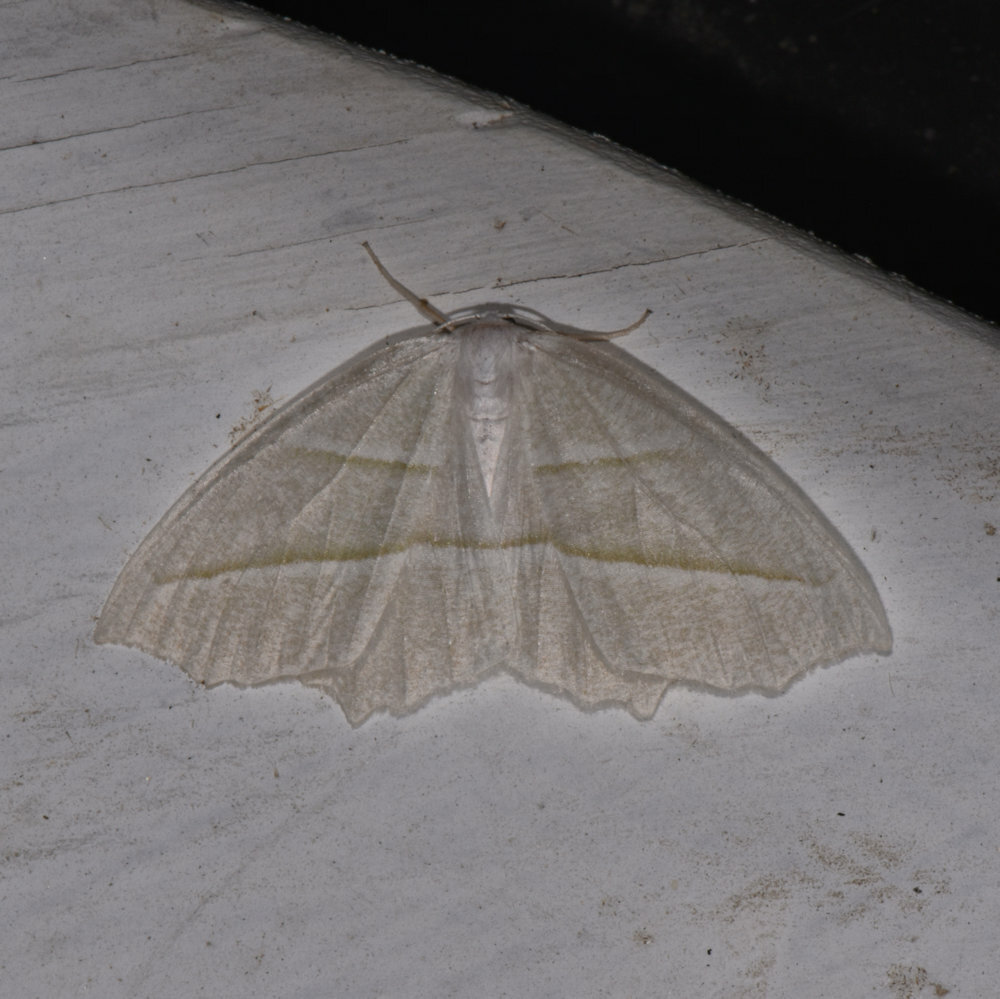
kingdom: Animalia
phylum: Arthropoda
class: Insecta
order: Lepidoptera
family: Geometridae
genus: Campaea
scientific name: Campaea perlata
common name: Fringed looper
